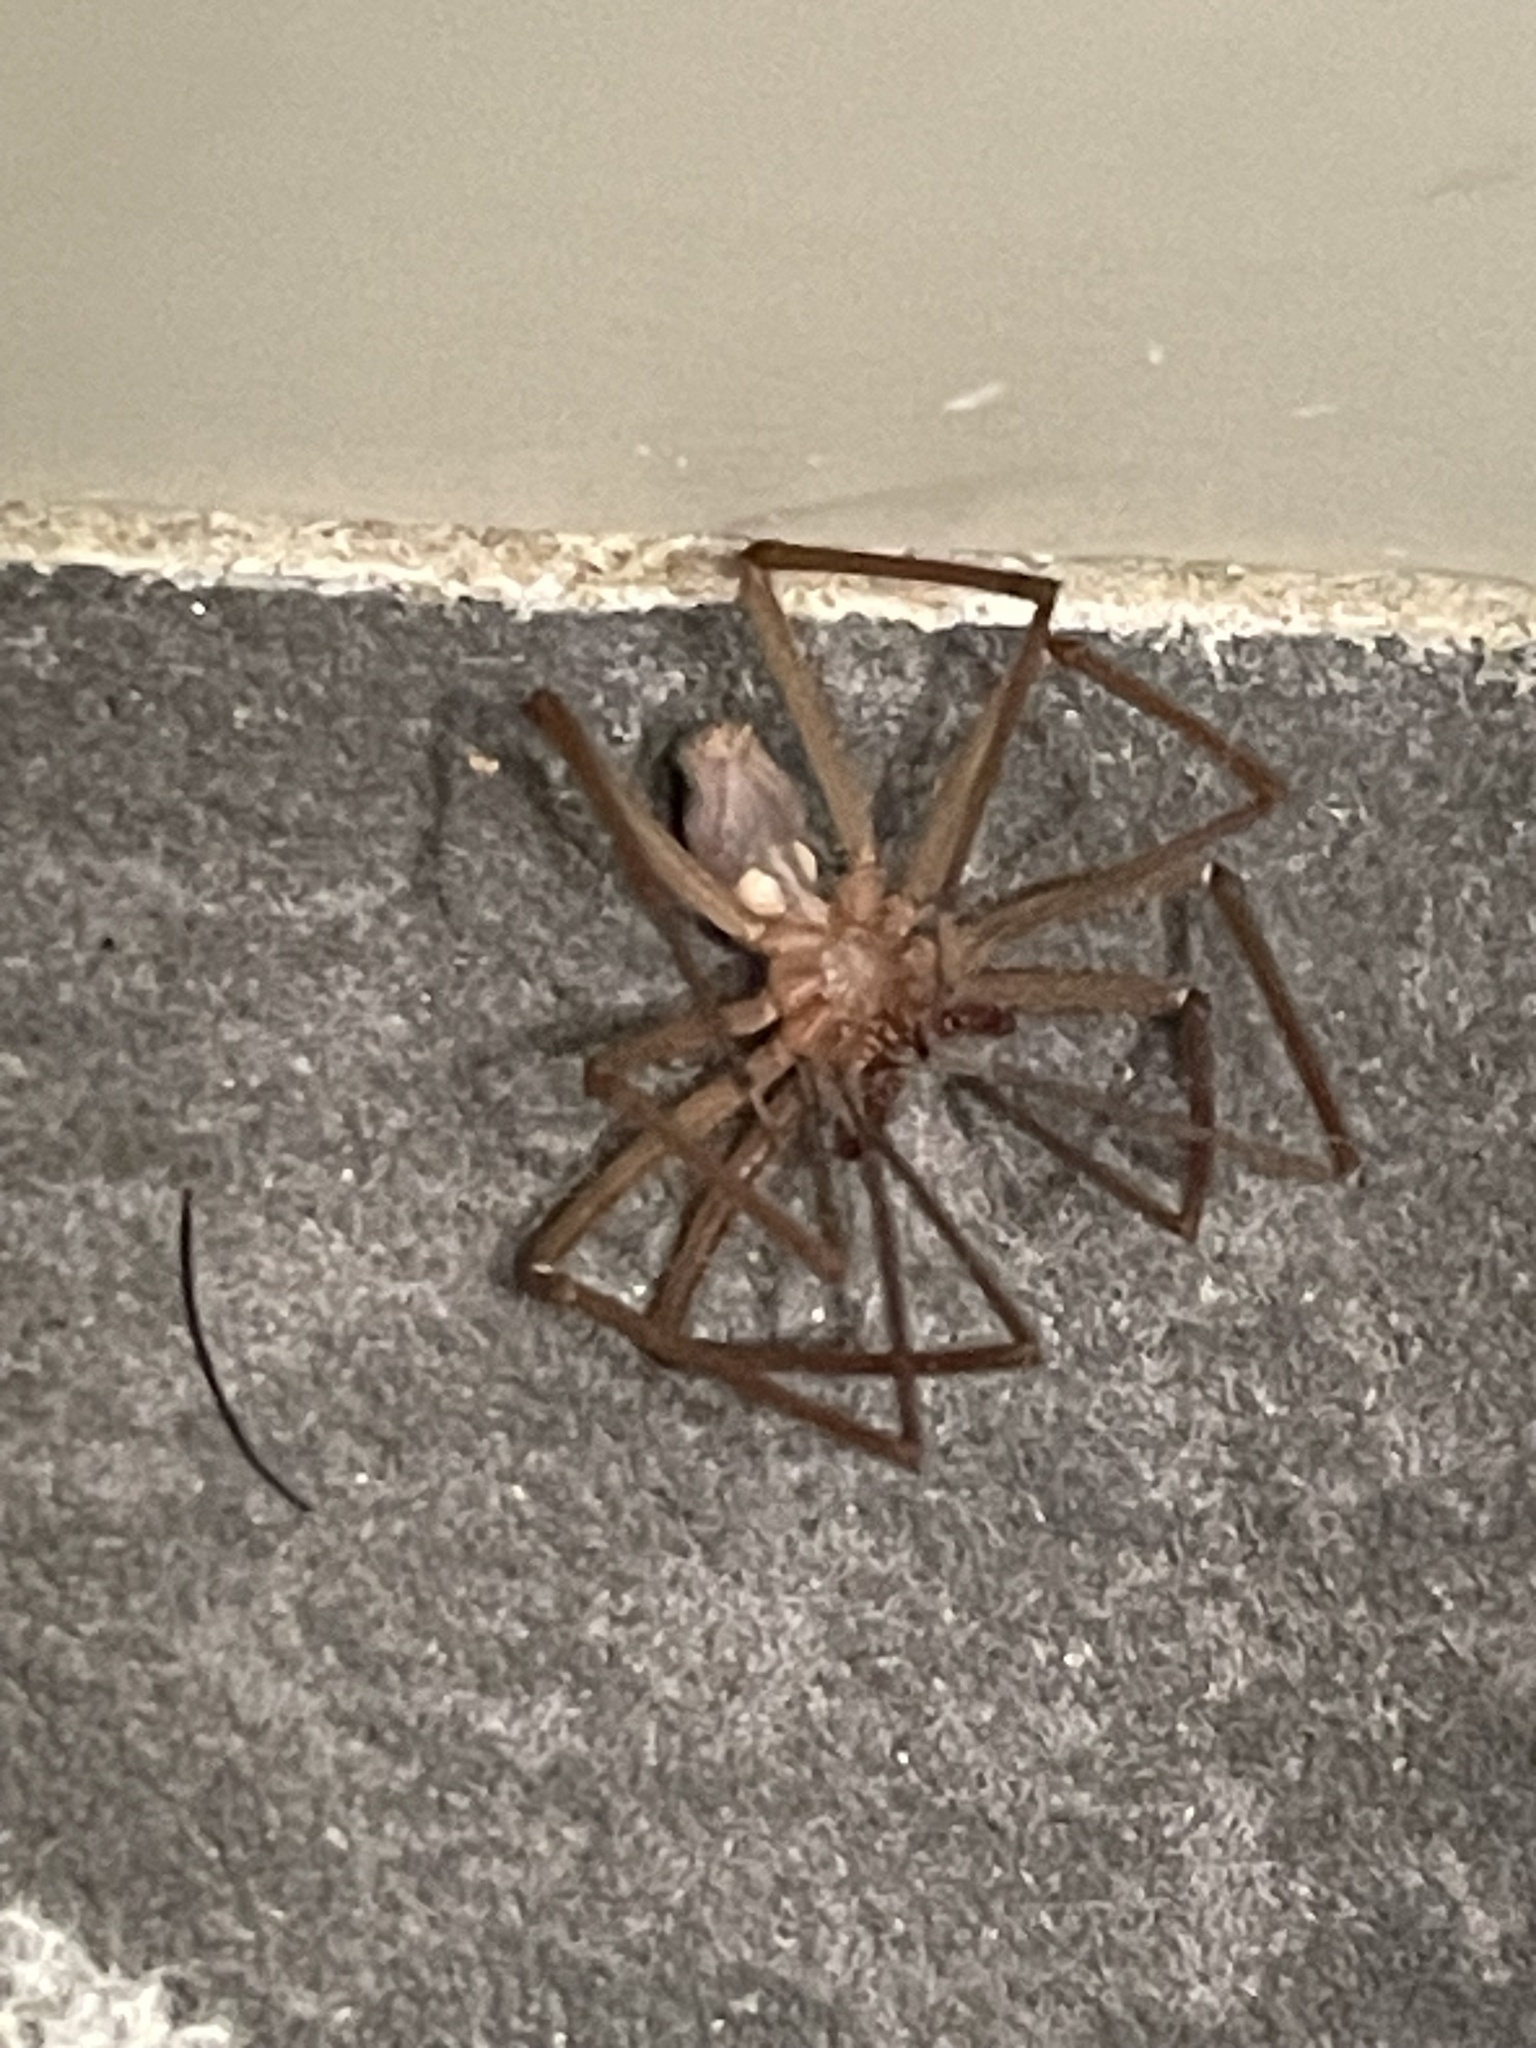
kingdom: Animalia
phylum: Arthropoda
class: Arachnida
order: Araneae
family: Sicariidae
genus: Loxosceles
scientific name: Loxosceles deserta
